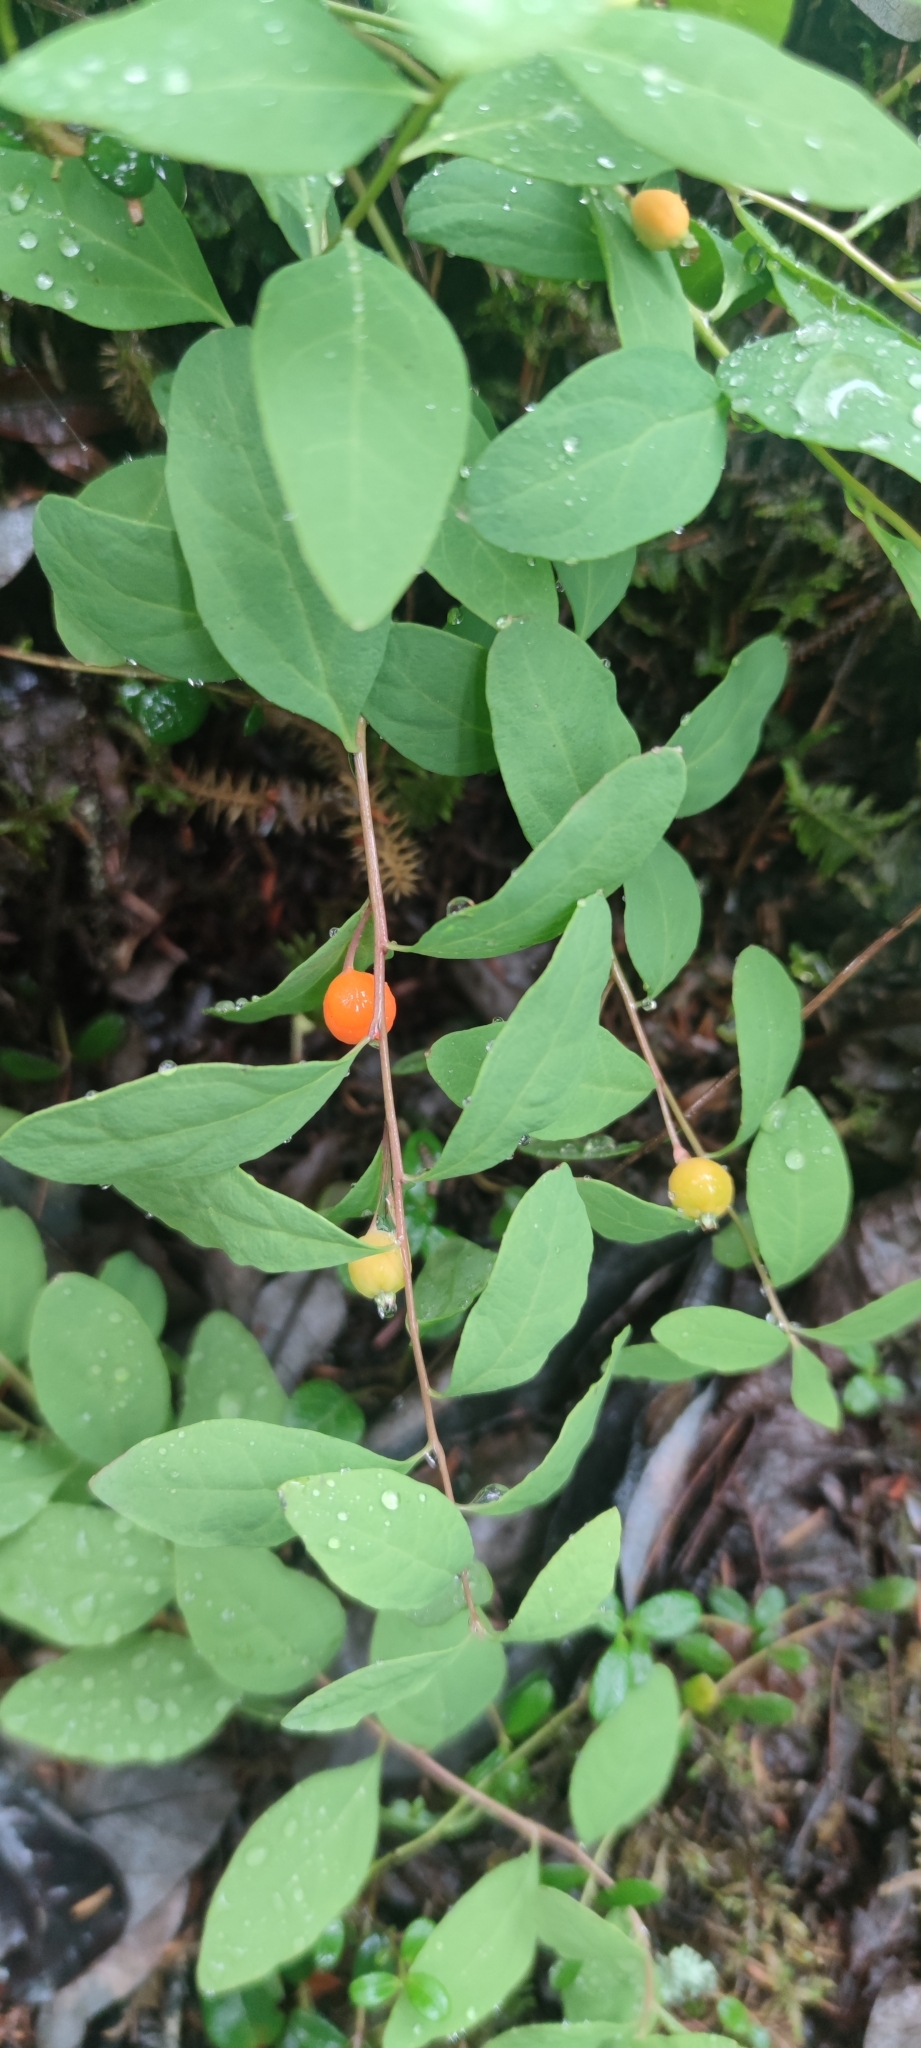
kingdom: Plantae
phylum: Tracheophyta
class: Magnoliopsida
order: Santalales
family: Comandraceae
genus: Geocaulon
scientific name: Geocaulon lividum
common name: Earthberry
